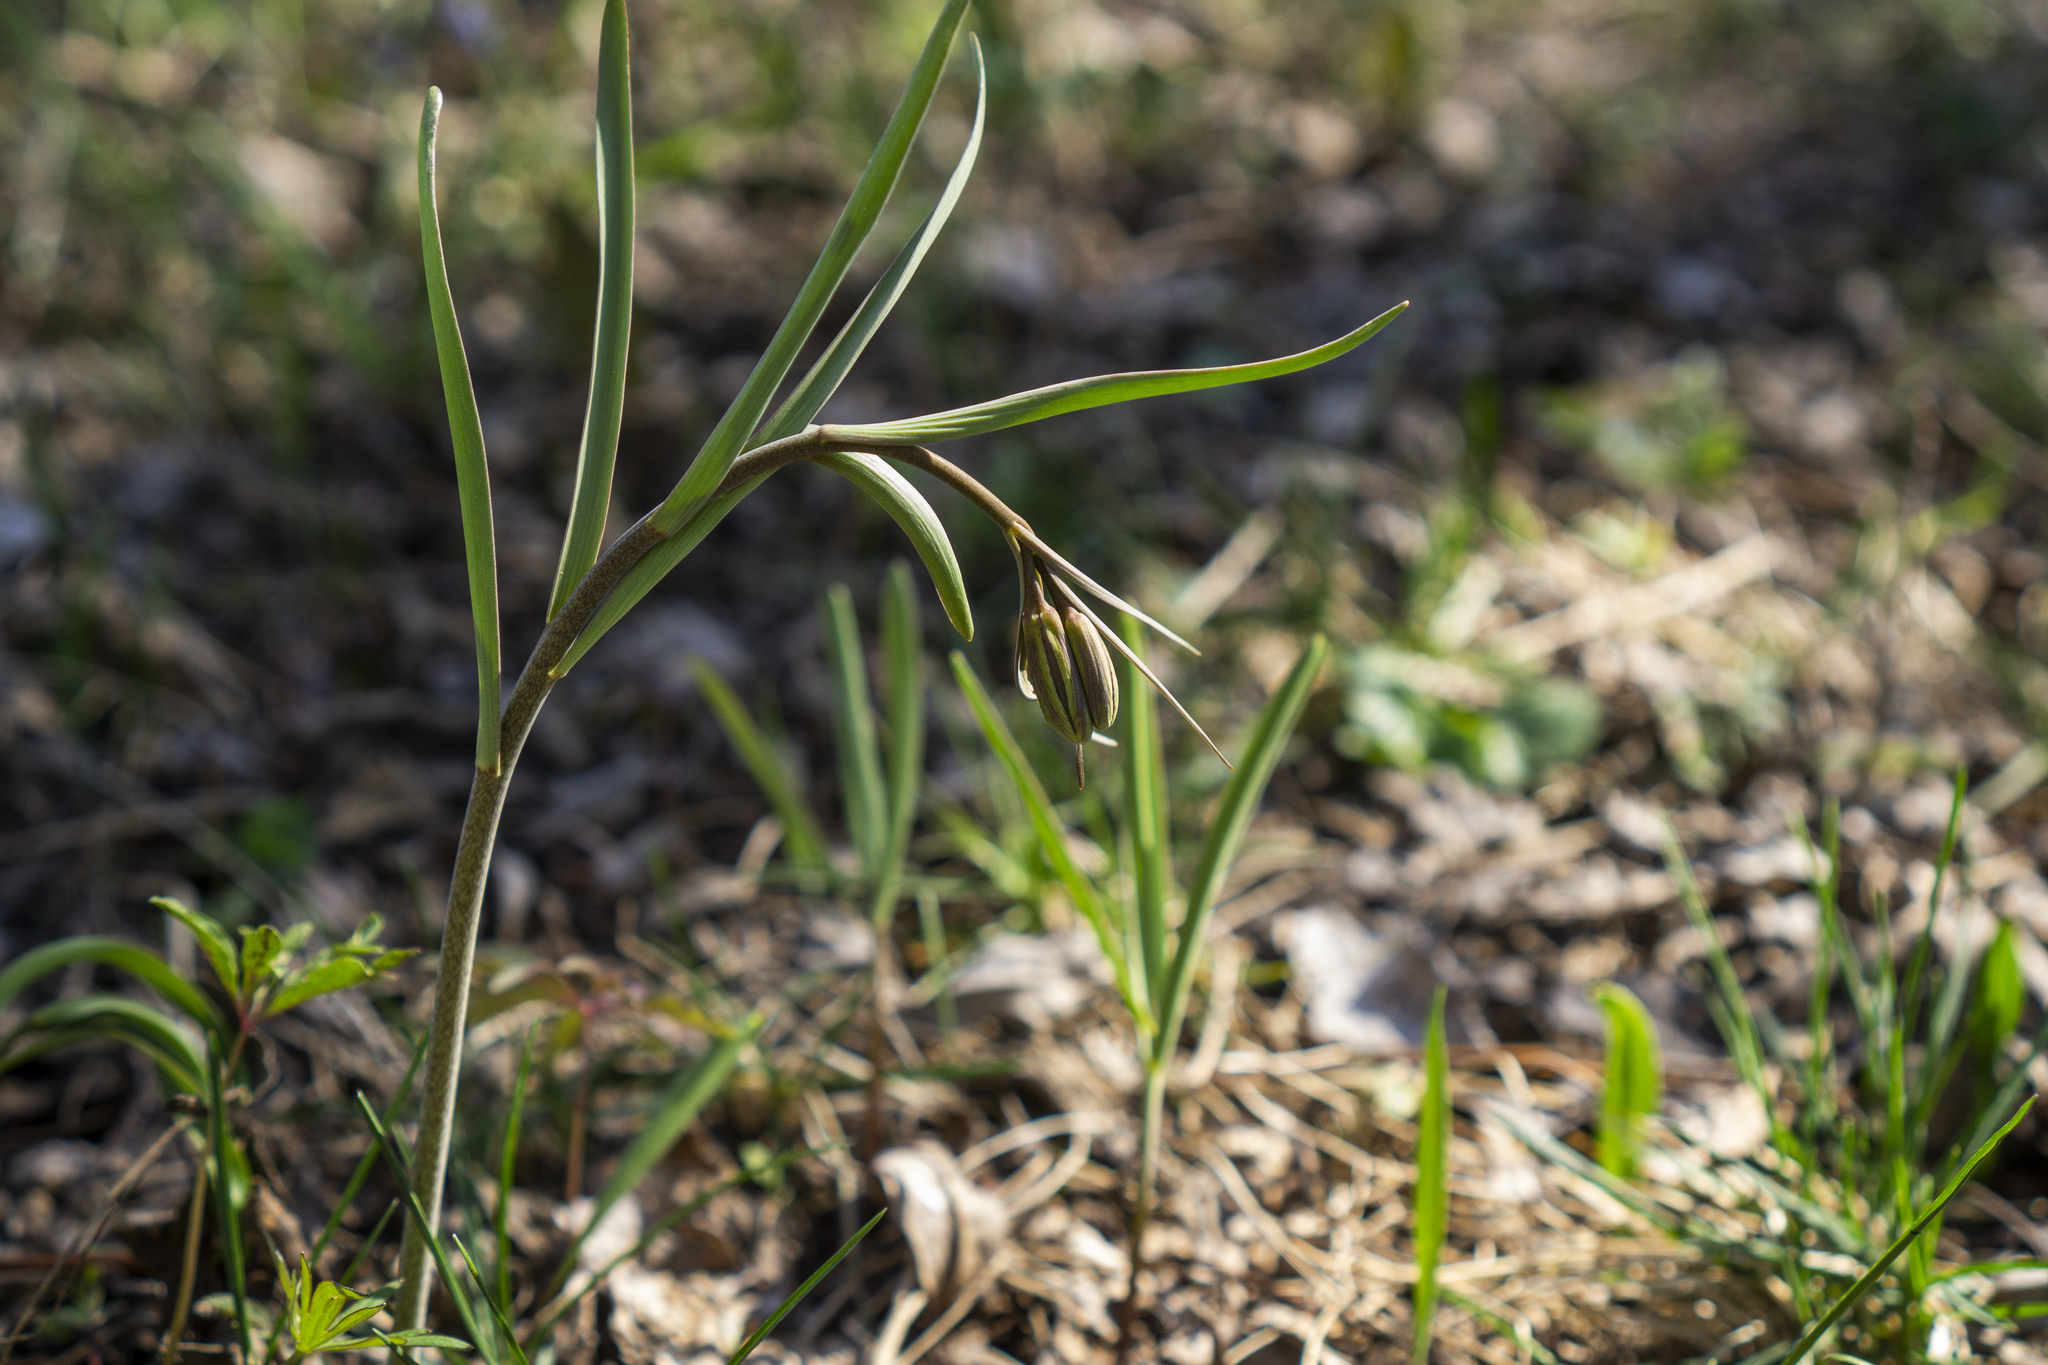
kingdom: Plantae
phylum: Tracheophyta
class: Liliopsida
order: Liliales
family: Liliaceae
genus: Fritillaria
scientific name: Fritillaria montana
